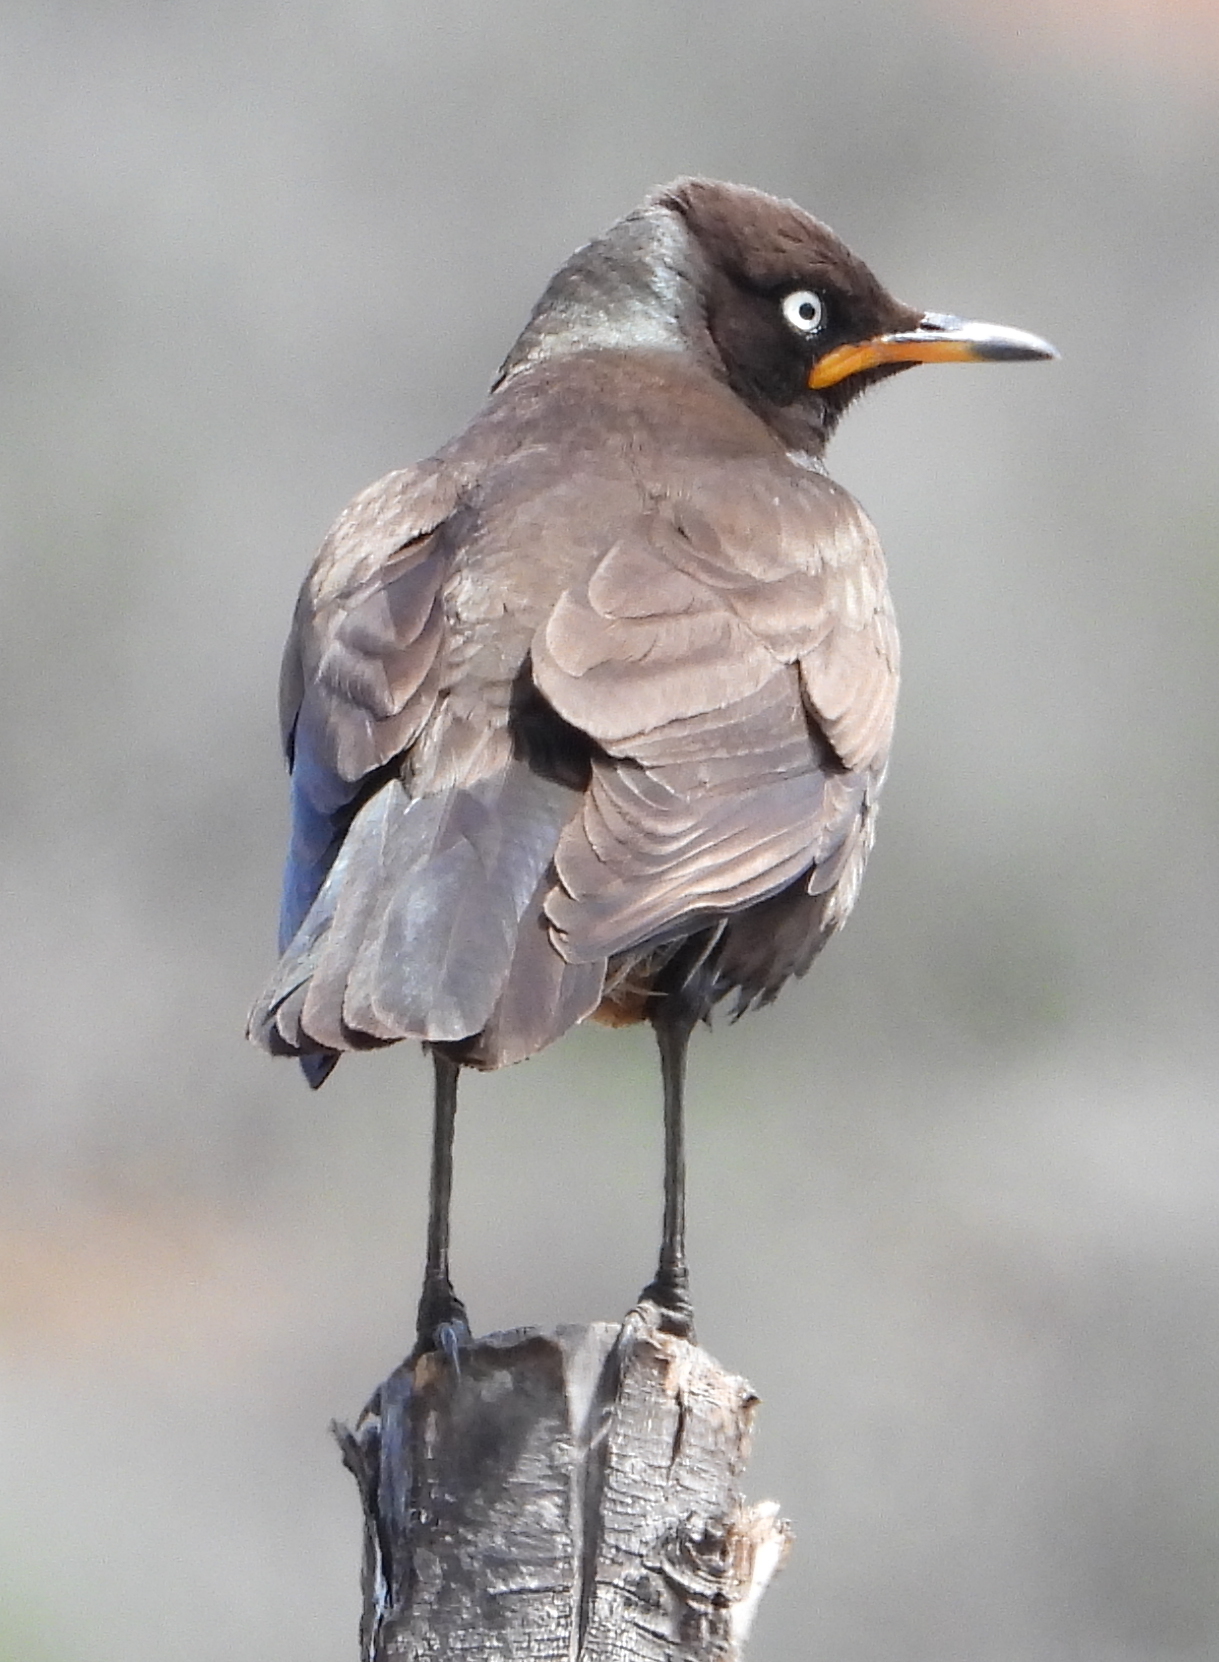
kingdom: Animalia
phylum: Chordata
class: Aves
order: Passeriformes
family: Sturnidae
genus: Lamprotornis
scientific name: Lamprotornis bicolor
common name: Pied starling
